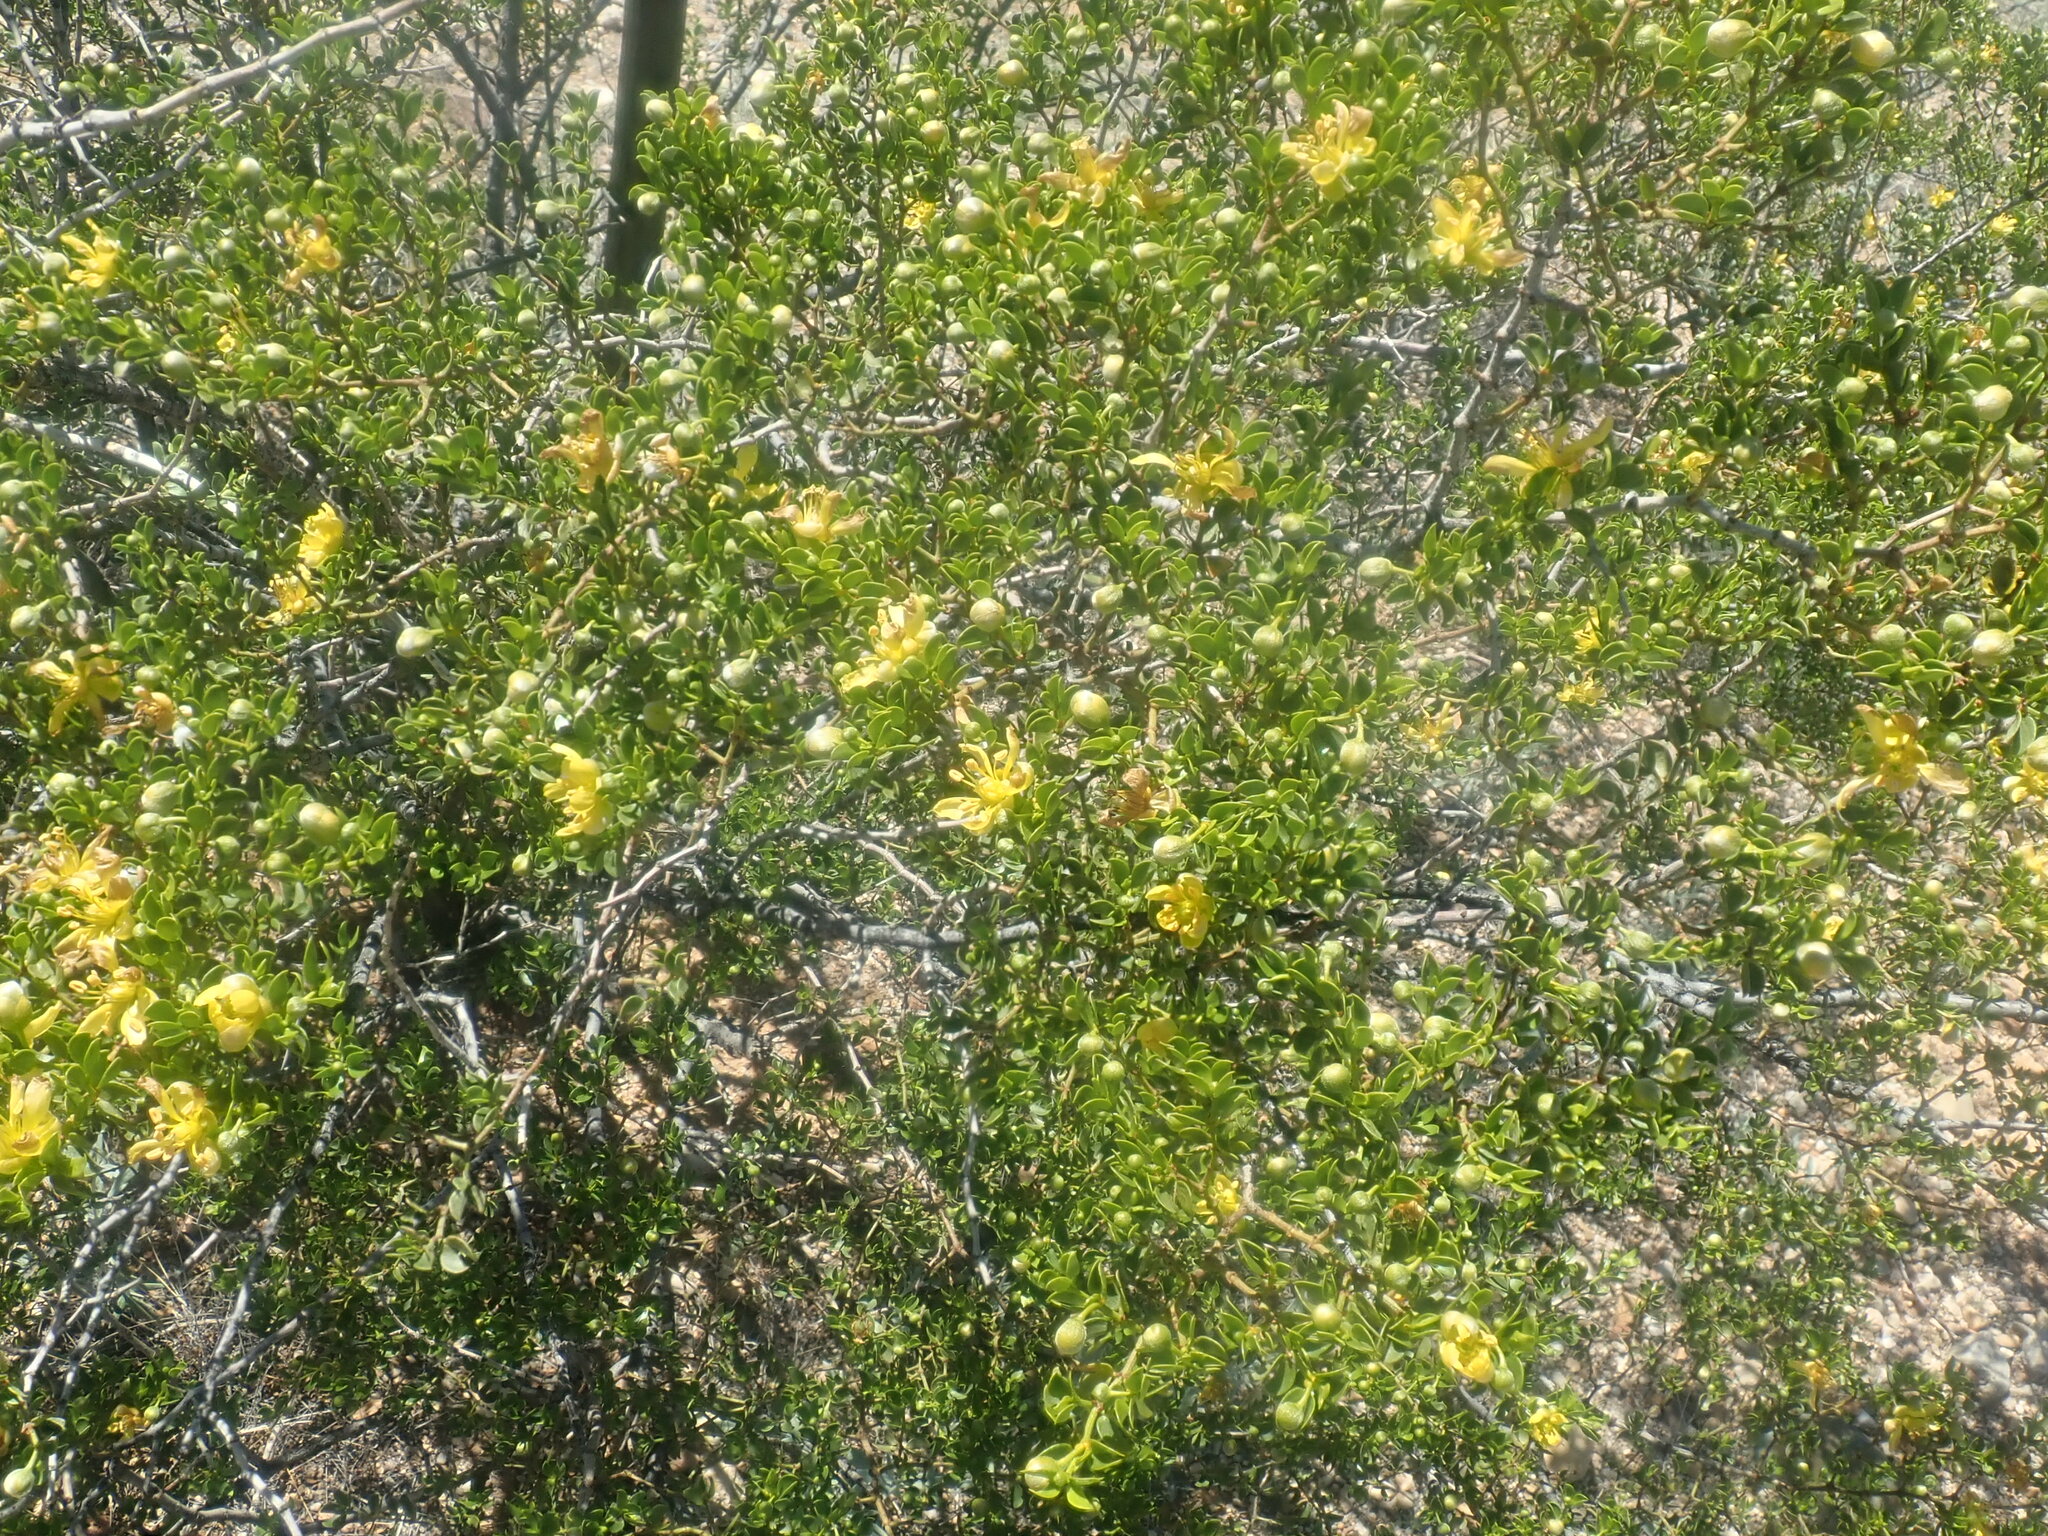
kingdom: Plantae
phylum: Tracheophyta
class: Magnoliopsida
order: Zygophyllales
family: Zygophyllaceae
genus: Larrea
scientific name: Larrea tridentata
